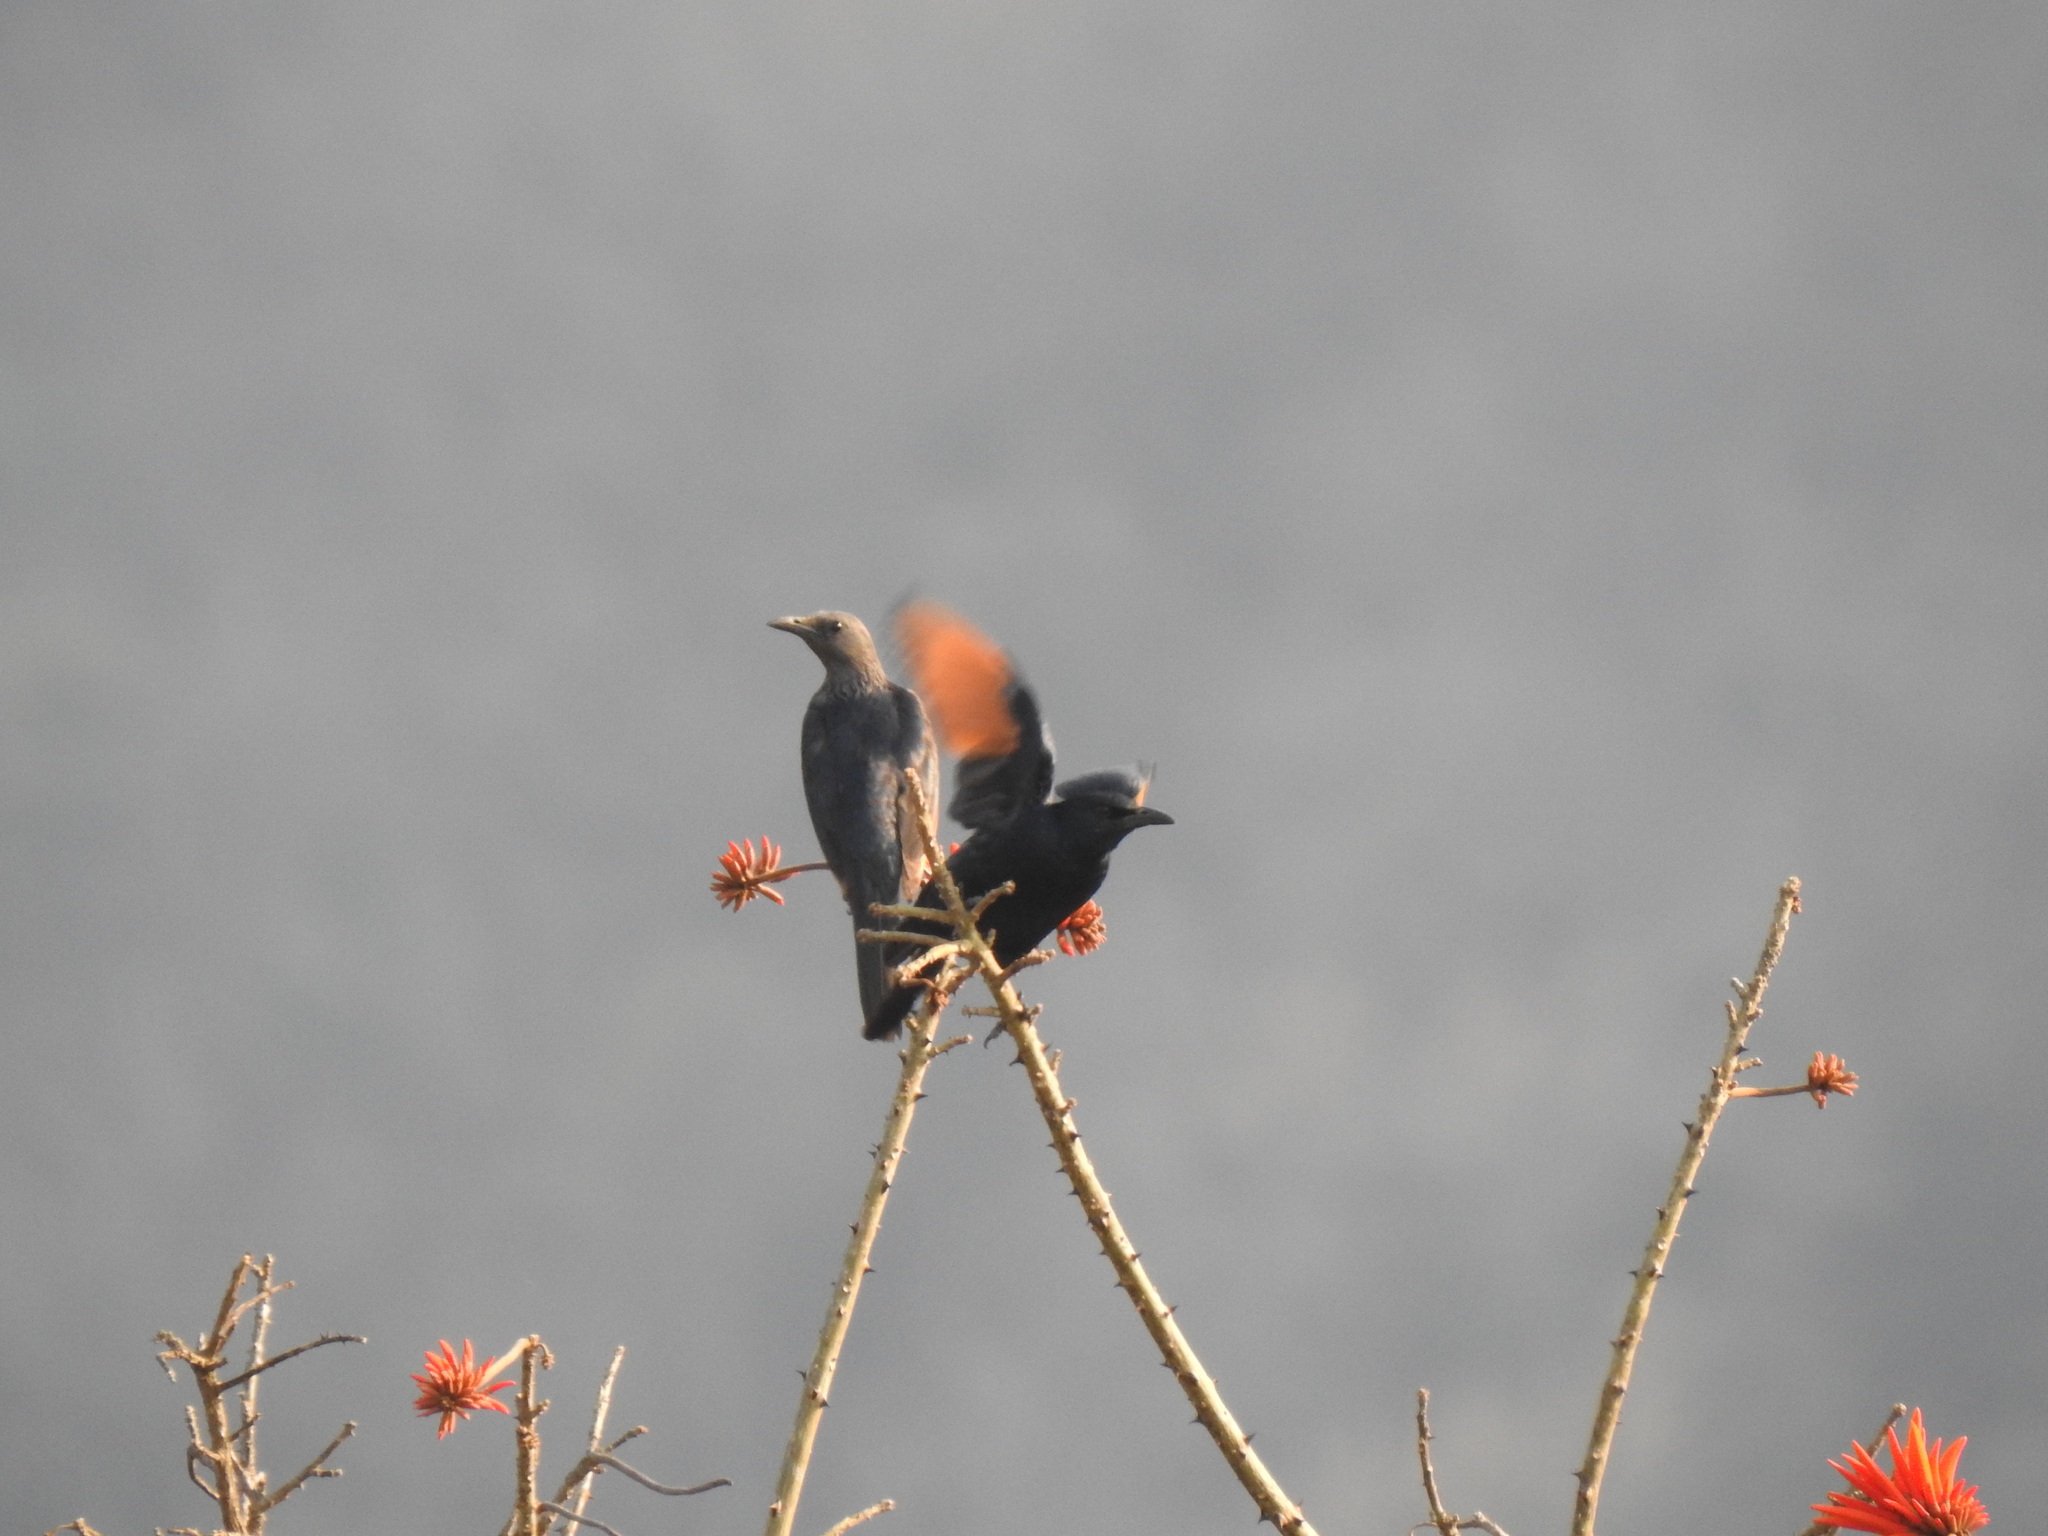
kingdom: Animalia
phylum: Chordata
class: Aves
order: Passeriformes
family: Sturnidae
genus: Onychognathus
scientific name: Onychognathus morio
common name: Red-winged starling
